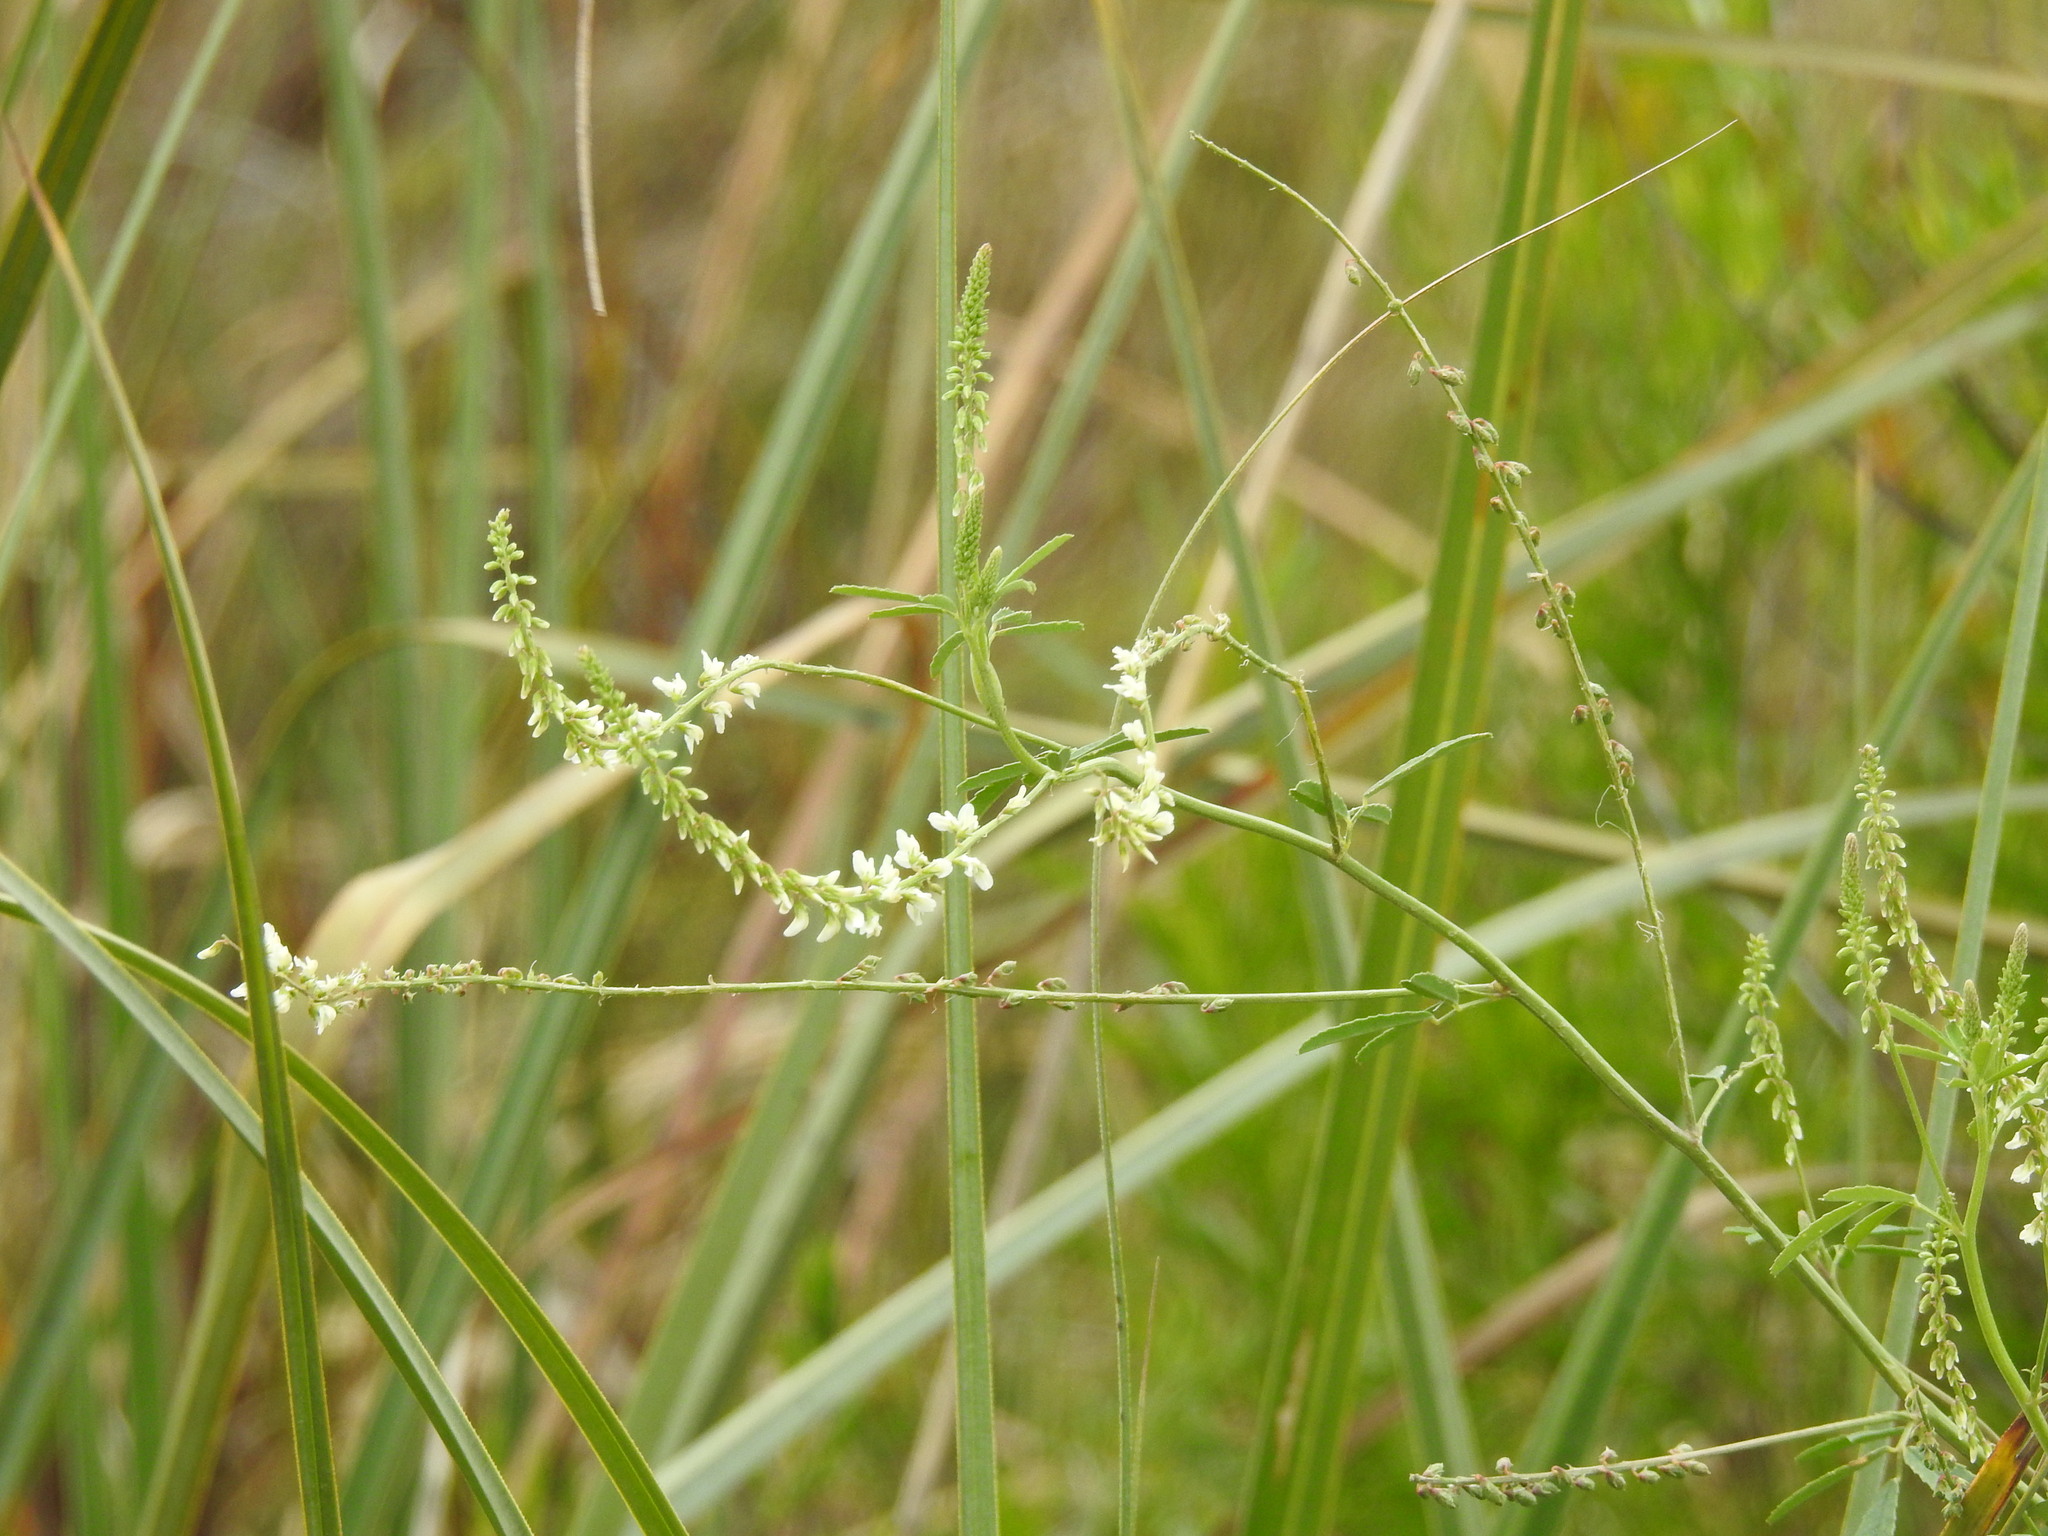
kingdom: Plantae
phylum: Tracheophyta
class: Magnoliopsida
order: Fabales
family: Fabaceae
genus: Melilotus
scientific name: Melilotus albus
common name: White melilot
